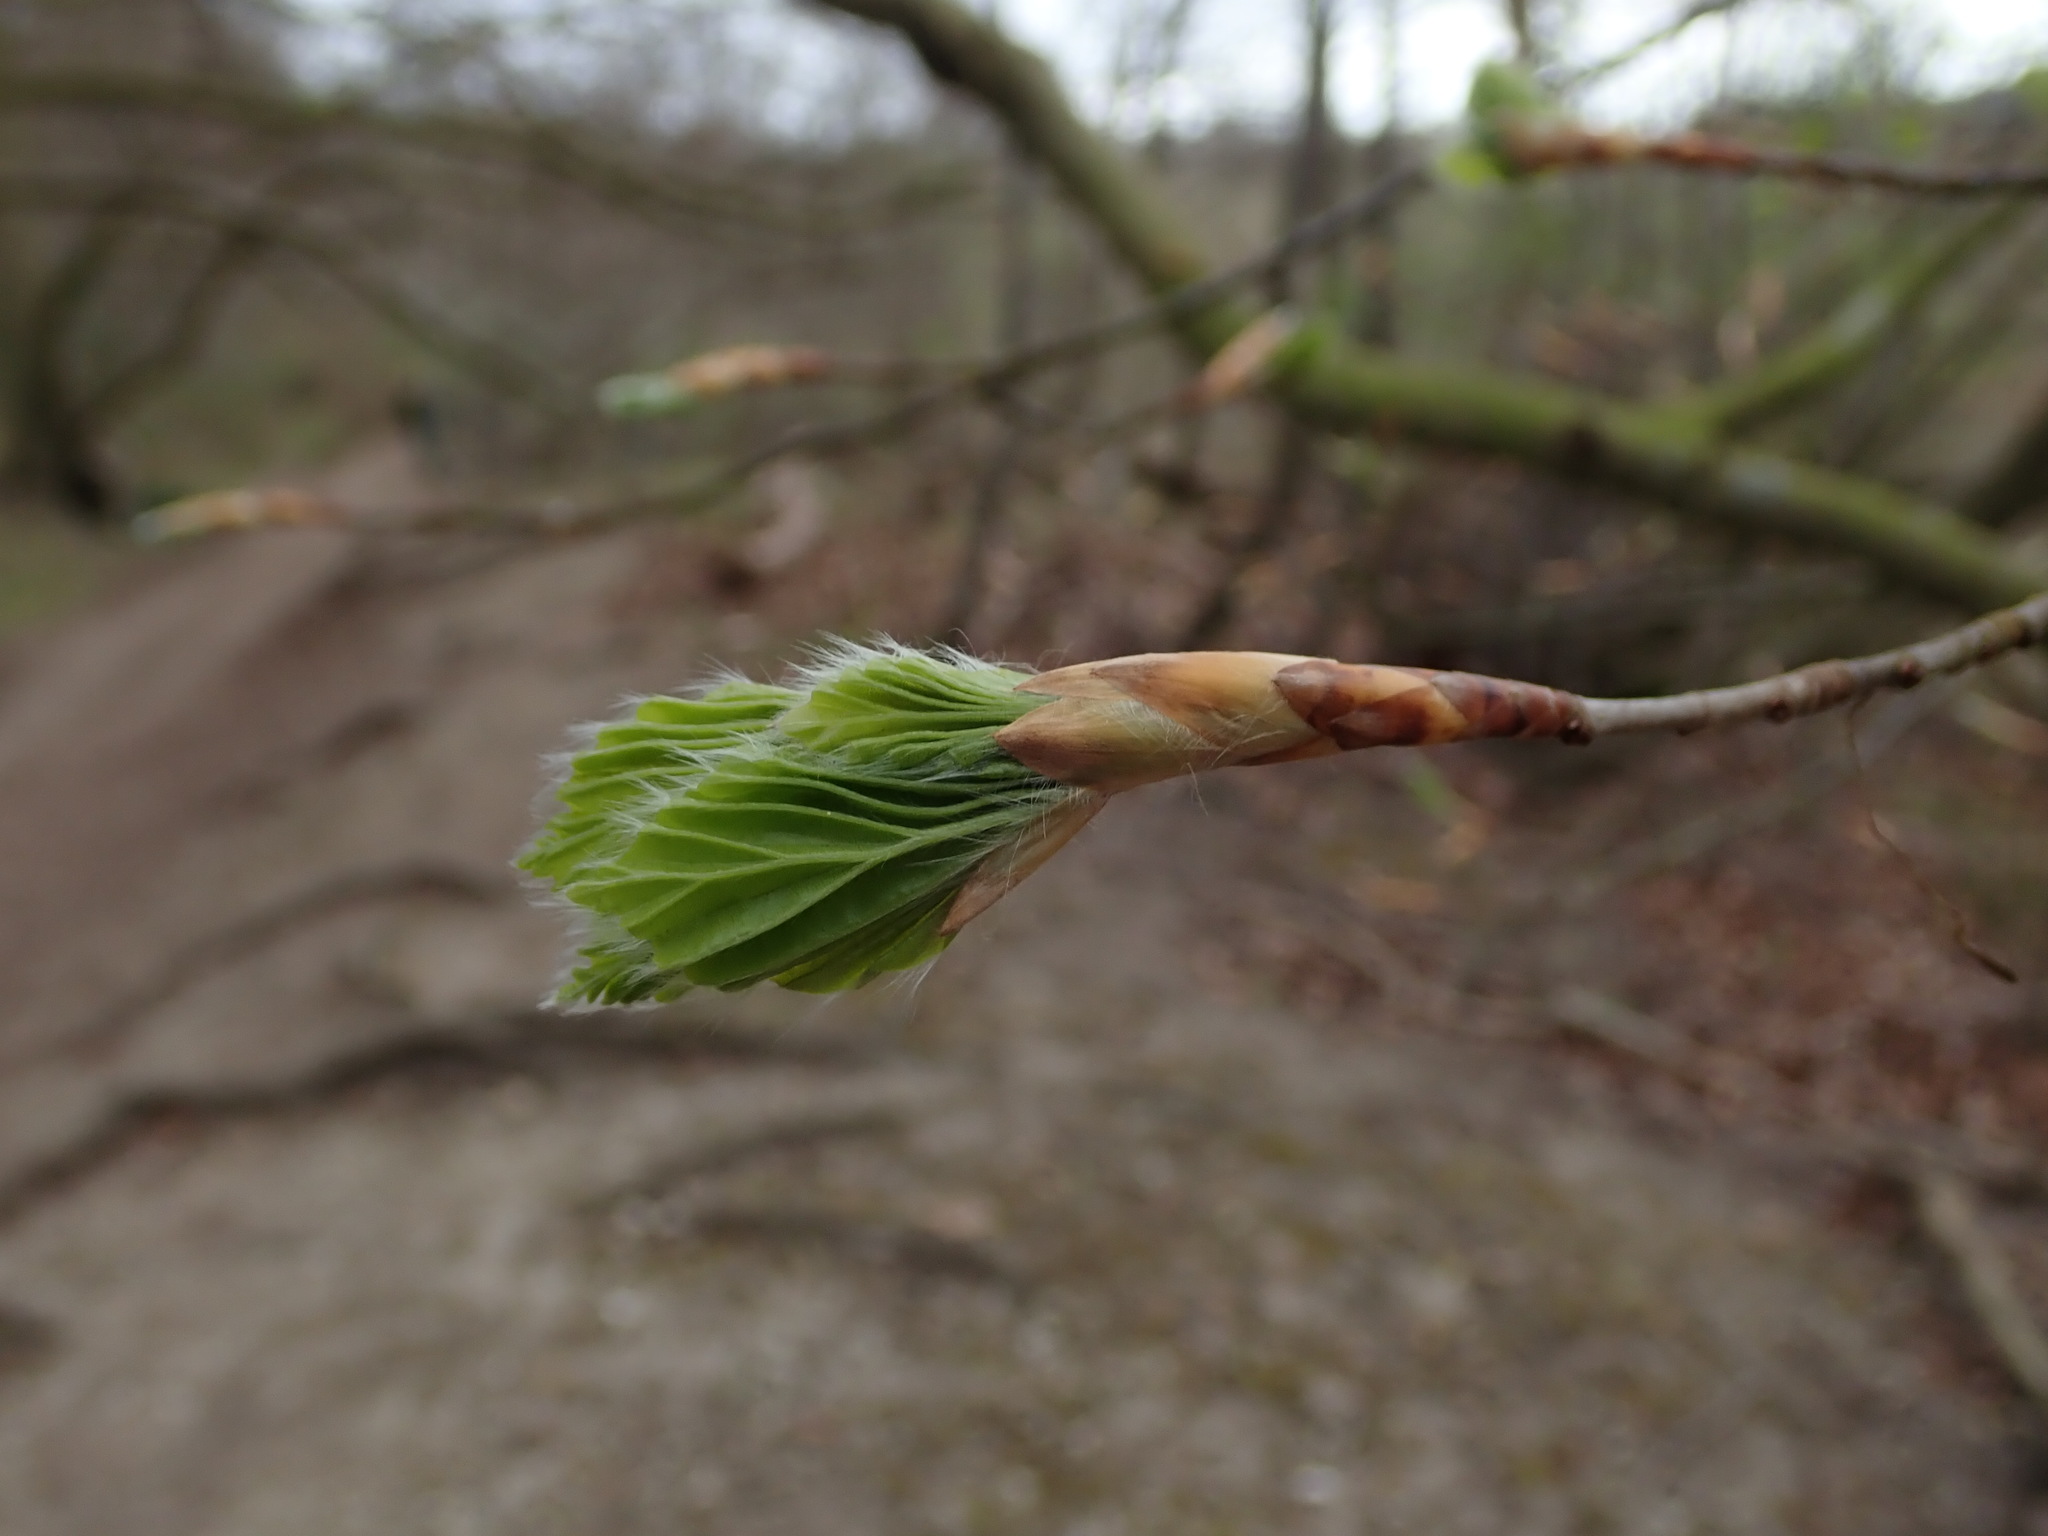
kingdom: Plantae
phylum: Tracheophyta
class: Magnoliopsida
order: Fagales
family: Fagaceae
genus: Fagus
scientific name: Fagus sylvatica
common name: Beech
